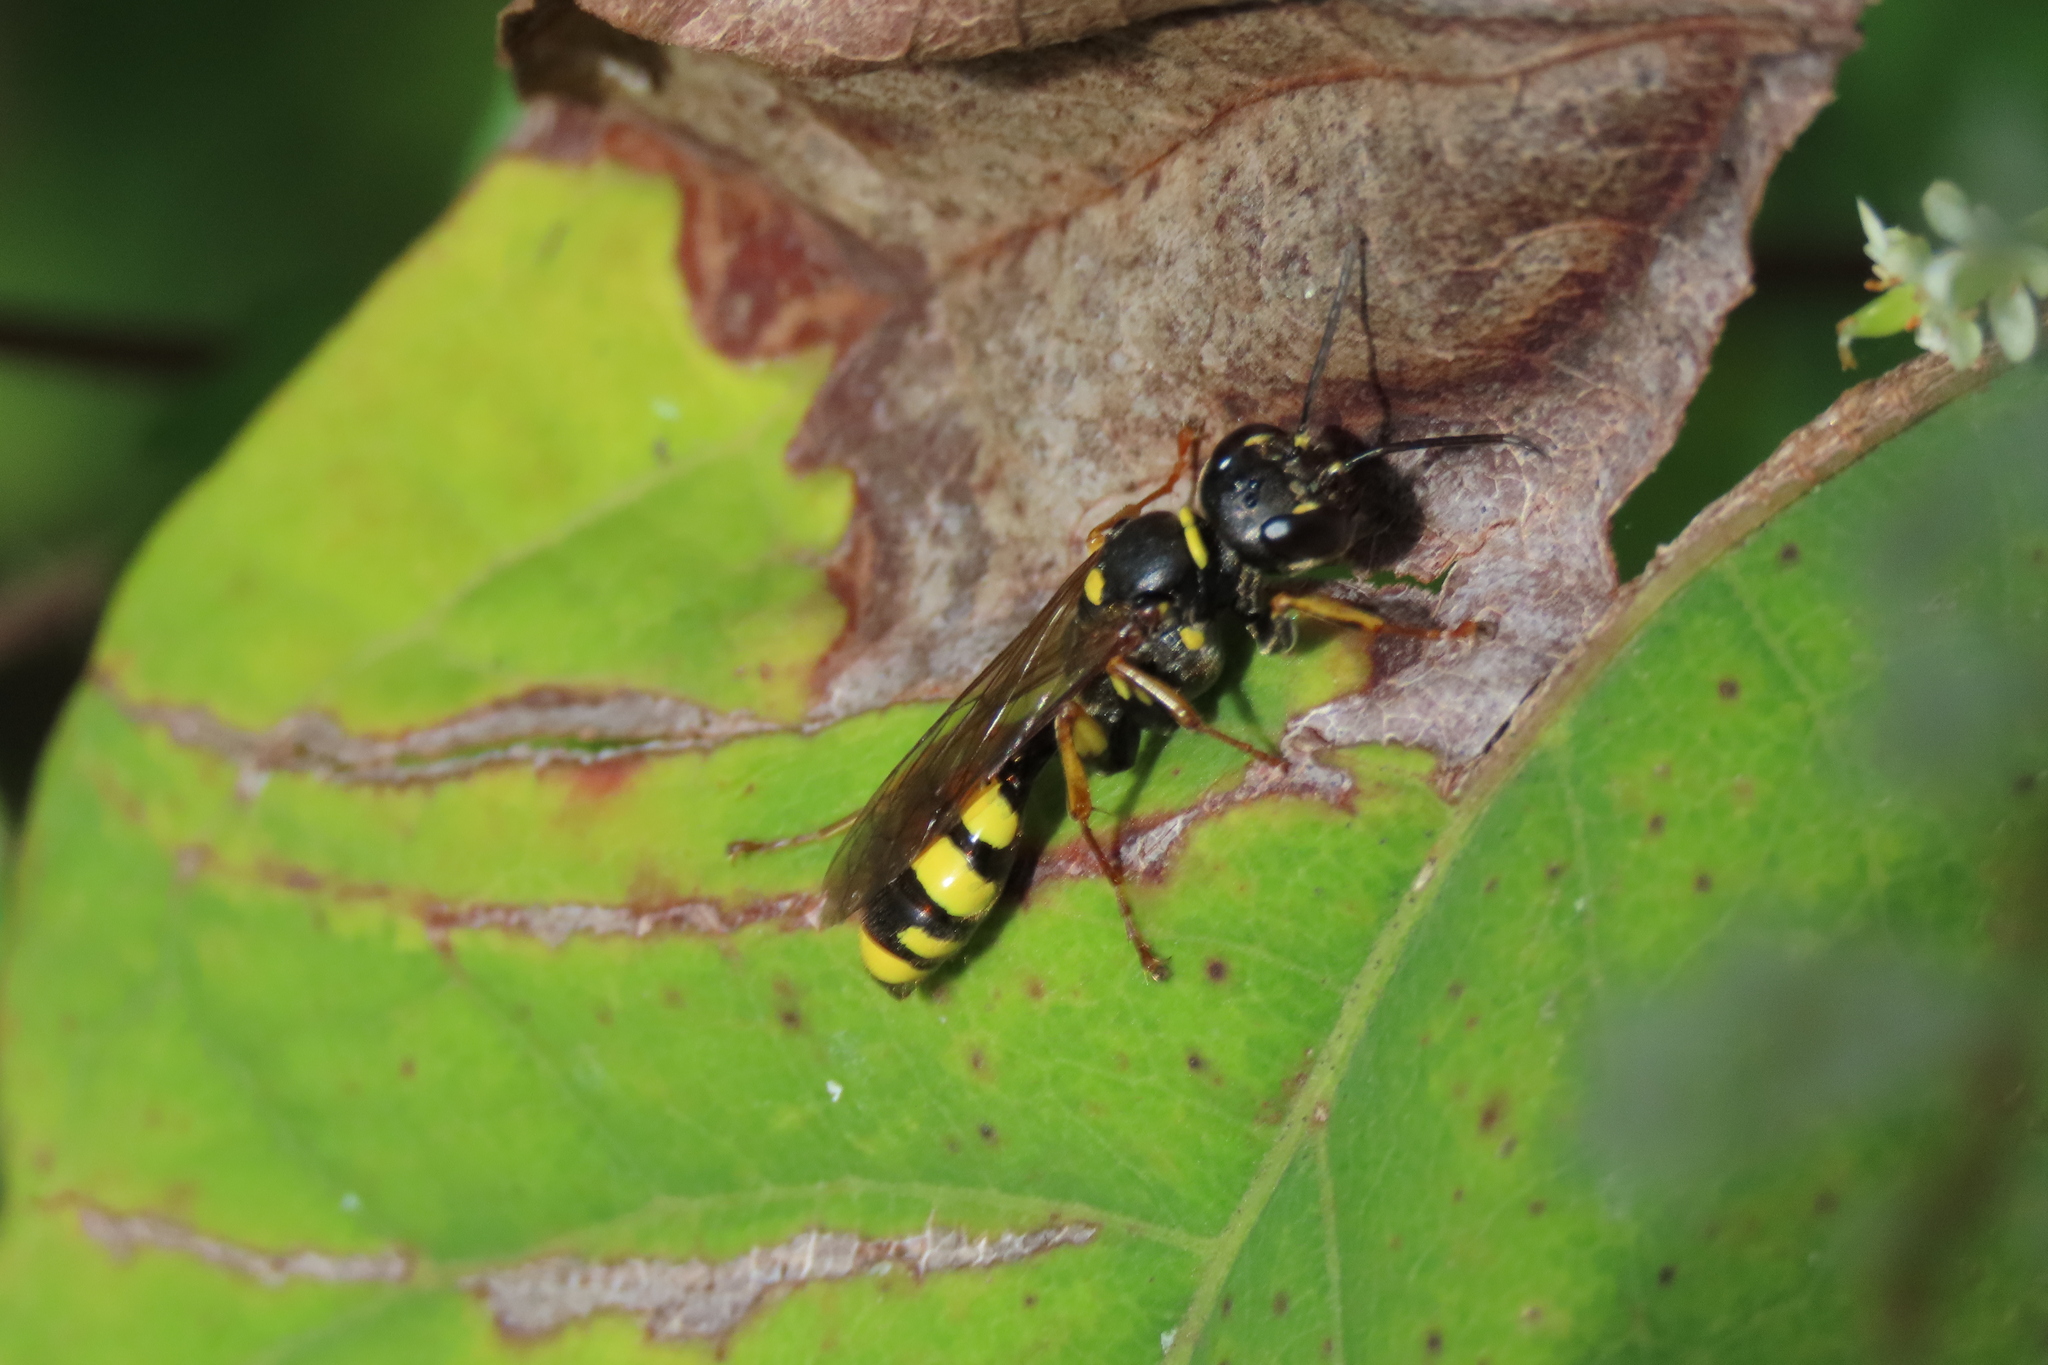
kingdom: Animalia
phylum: Arthropoda
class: Insecta
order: Hymenoptera
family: Crabronidae
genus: Mellinus
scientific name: Mellinus arvensis
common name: Field digger wasp
